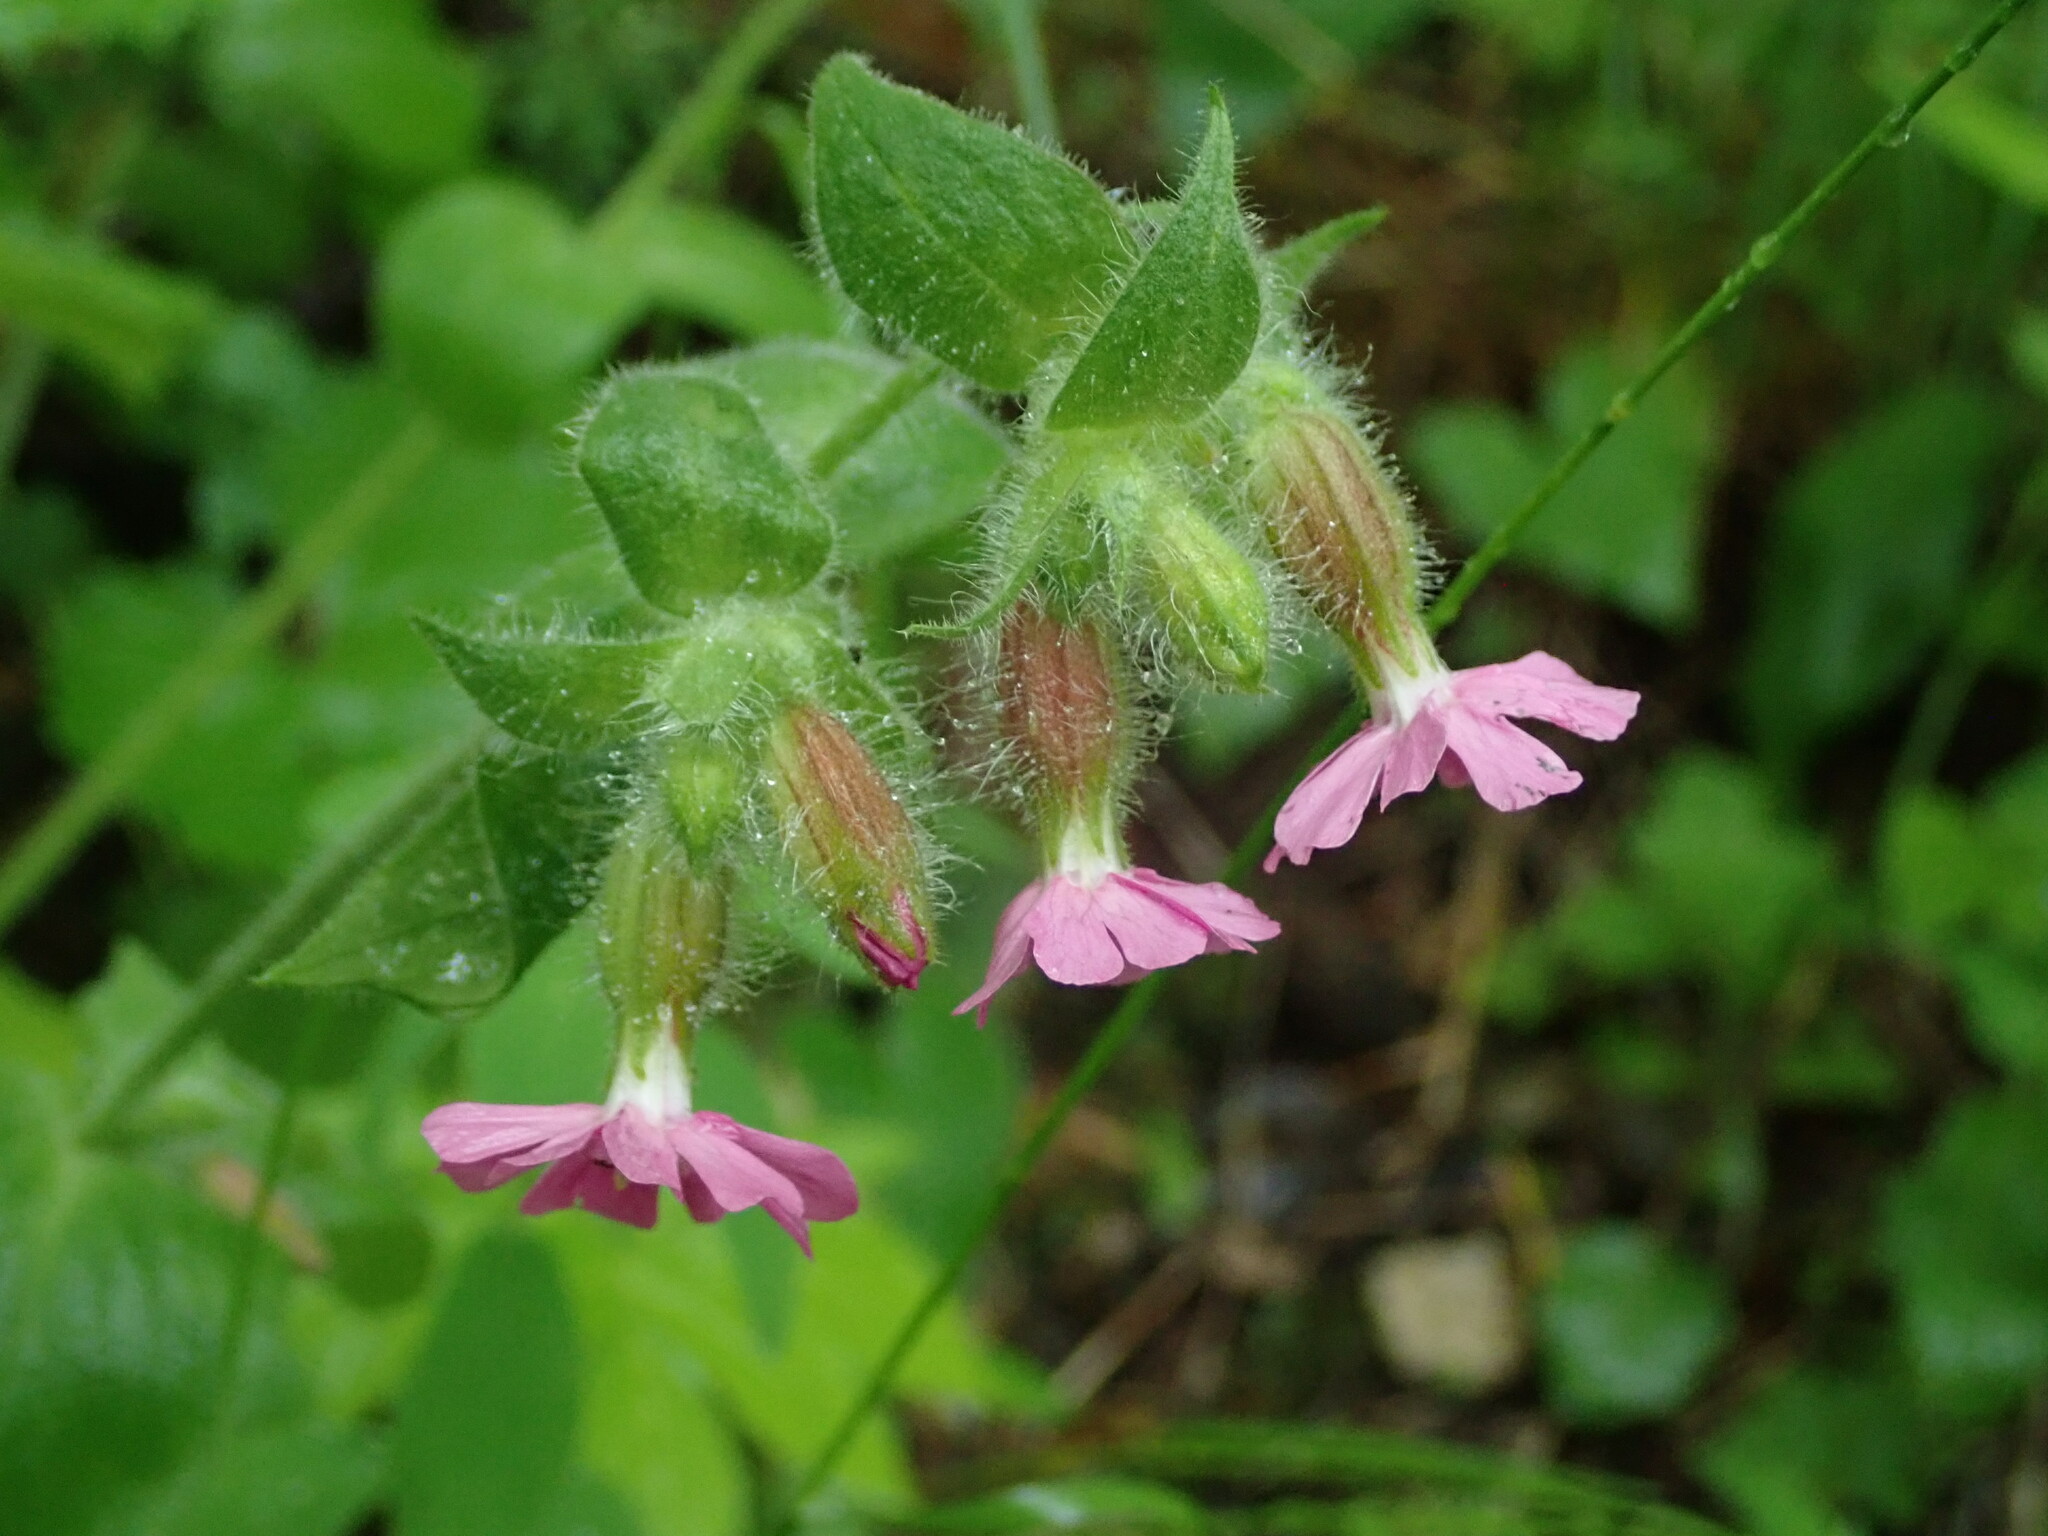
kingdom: Plantae
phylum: Tracheophyta
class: Magnoliopsida
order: Caryophyllales
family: Caryophyllaceae
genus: Silene
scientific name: Silene dioica
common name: Red campion
